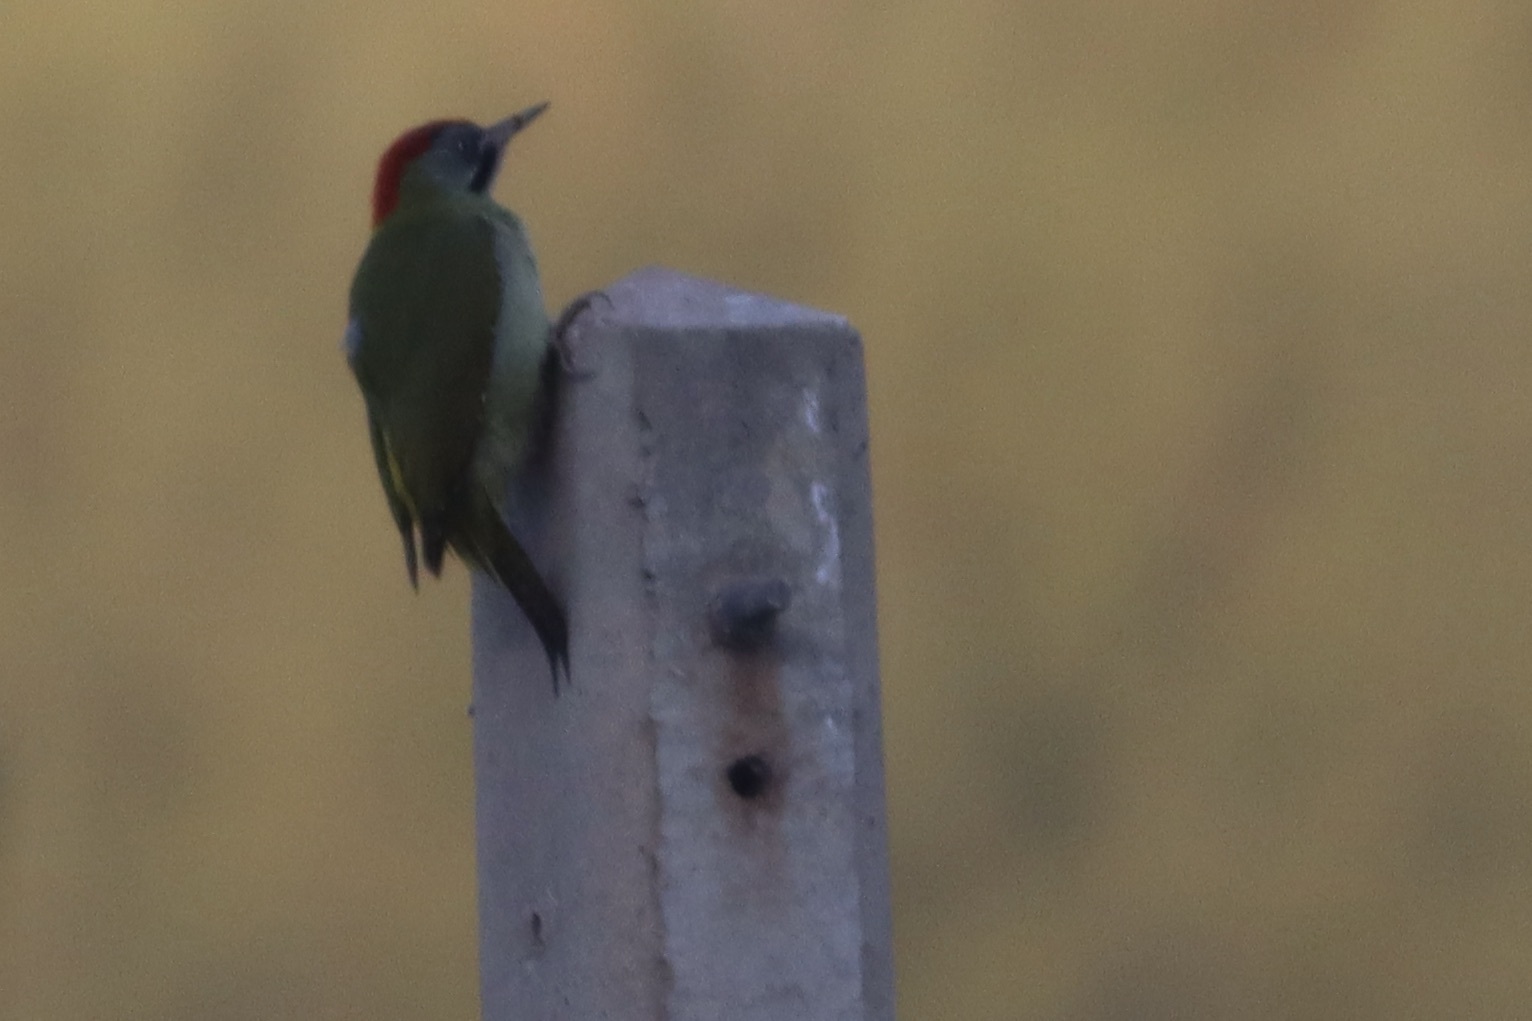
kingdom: Animalia
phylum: Chordata
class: Aves
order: Piciformes
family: Picidae
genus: Picus
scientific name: Picus vaillantii
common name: Levaillant's woodpecker
